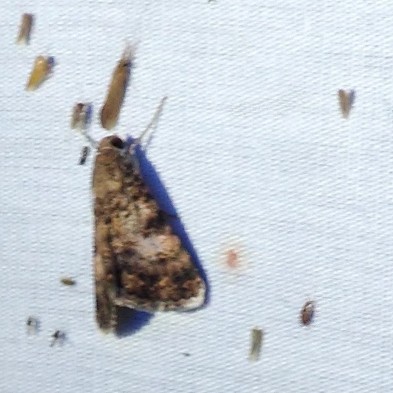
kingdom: Animalia
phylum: Arthropoda
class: Insecta
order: Lepidoptera
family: Erebidae
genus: Melipotis
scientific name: Melipotis jucunda
